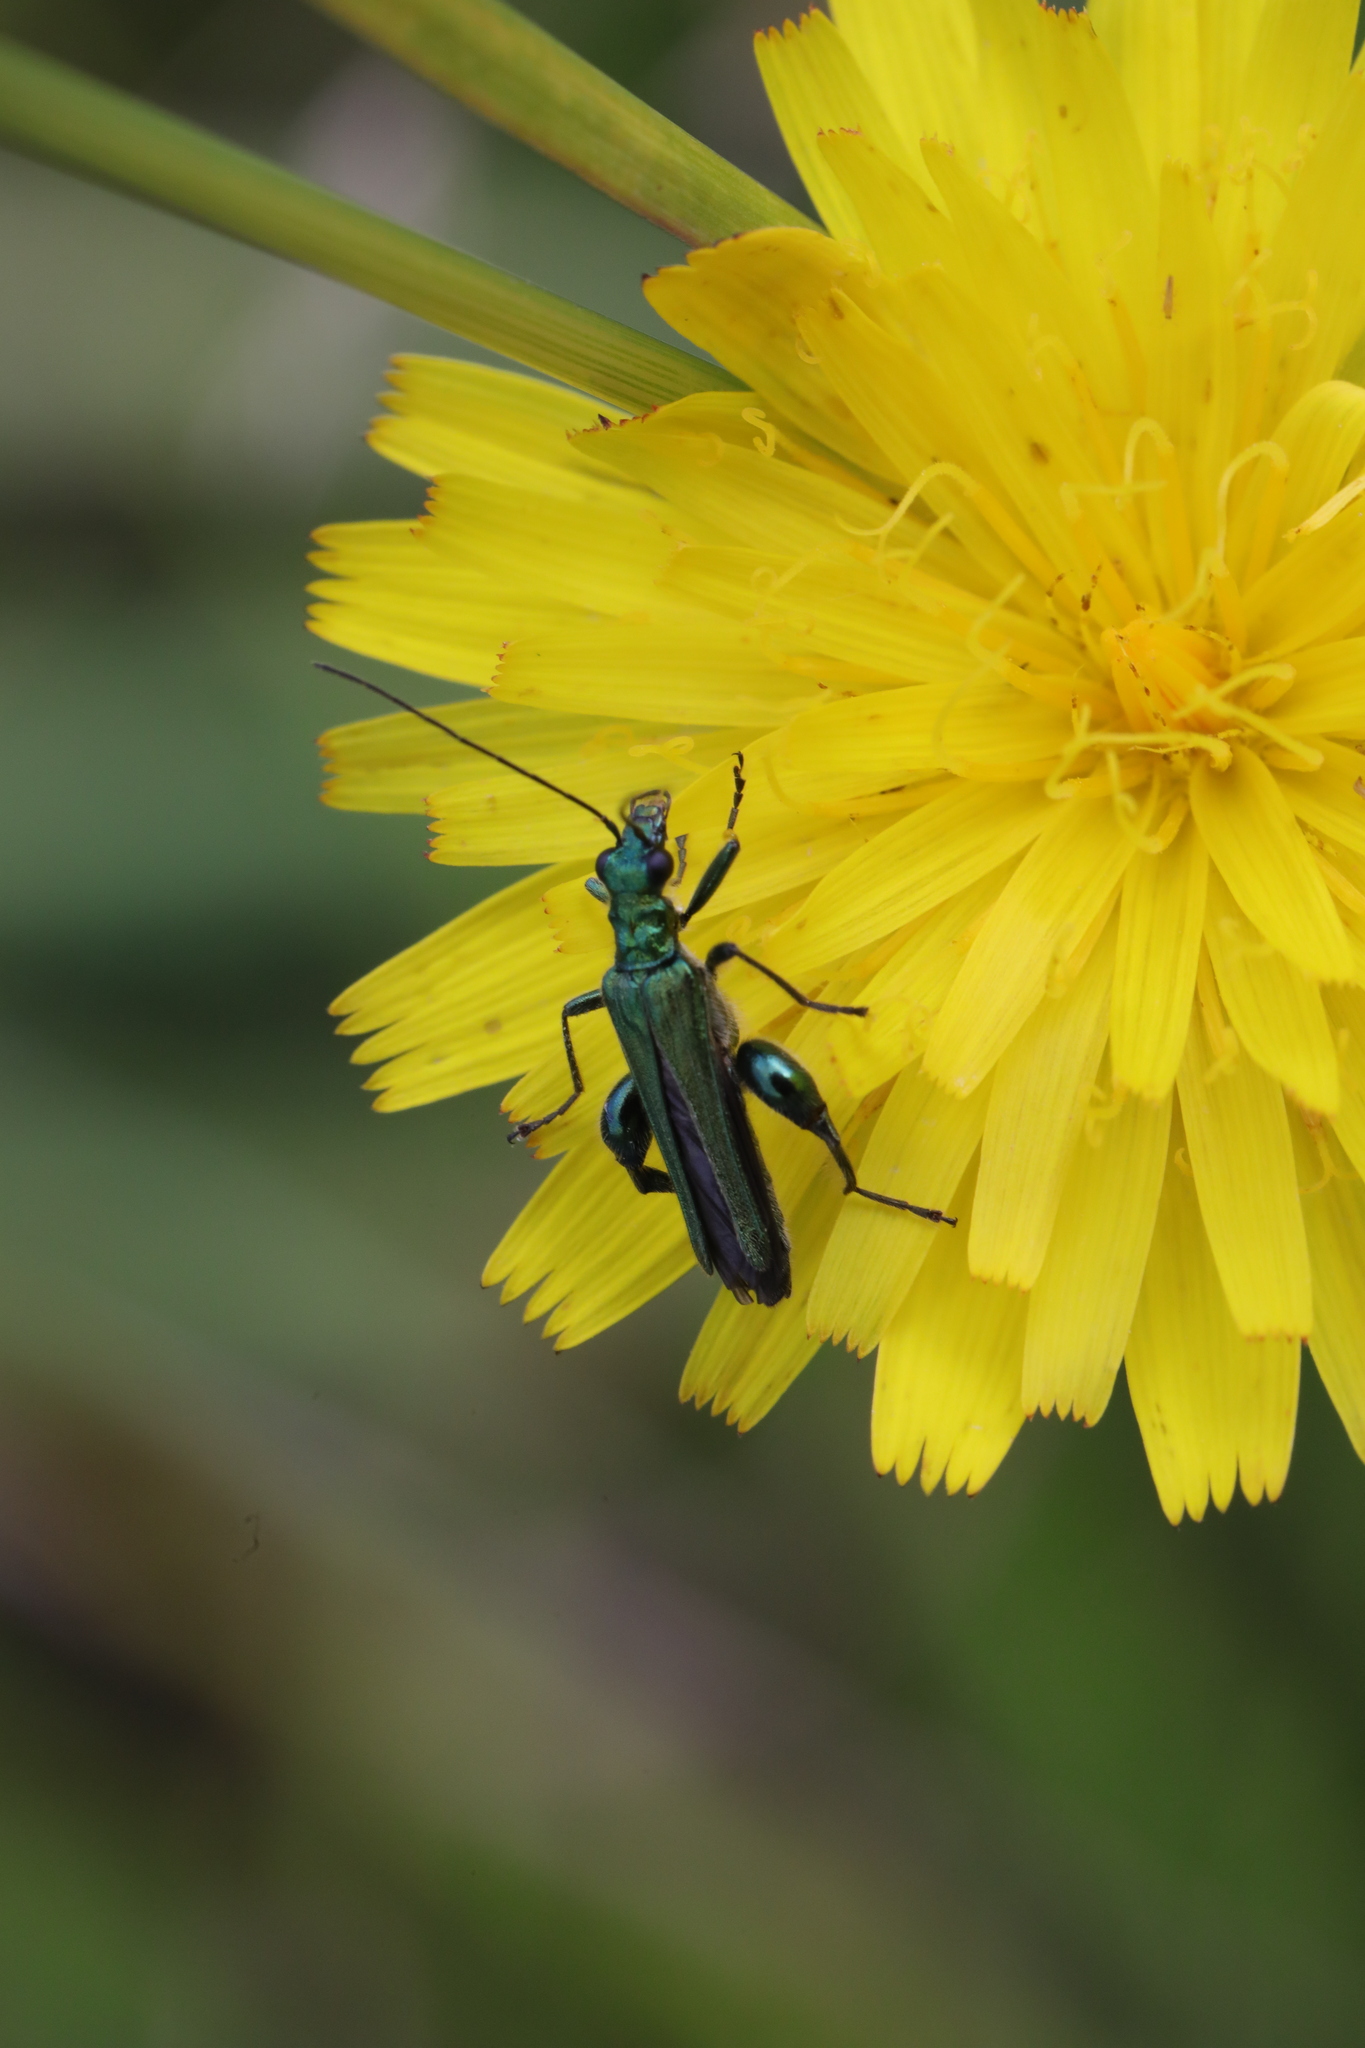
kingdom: Animalia
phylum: Arthropoda
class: Insecta
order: Coleoptera
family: Oedemeridae
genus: Oedemera
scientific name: Oedemera nobilis
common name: Swollen-thighed beetle
